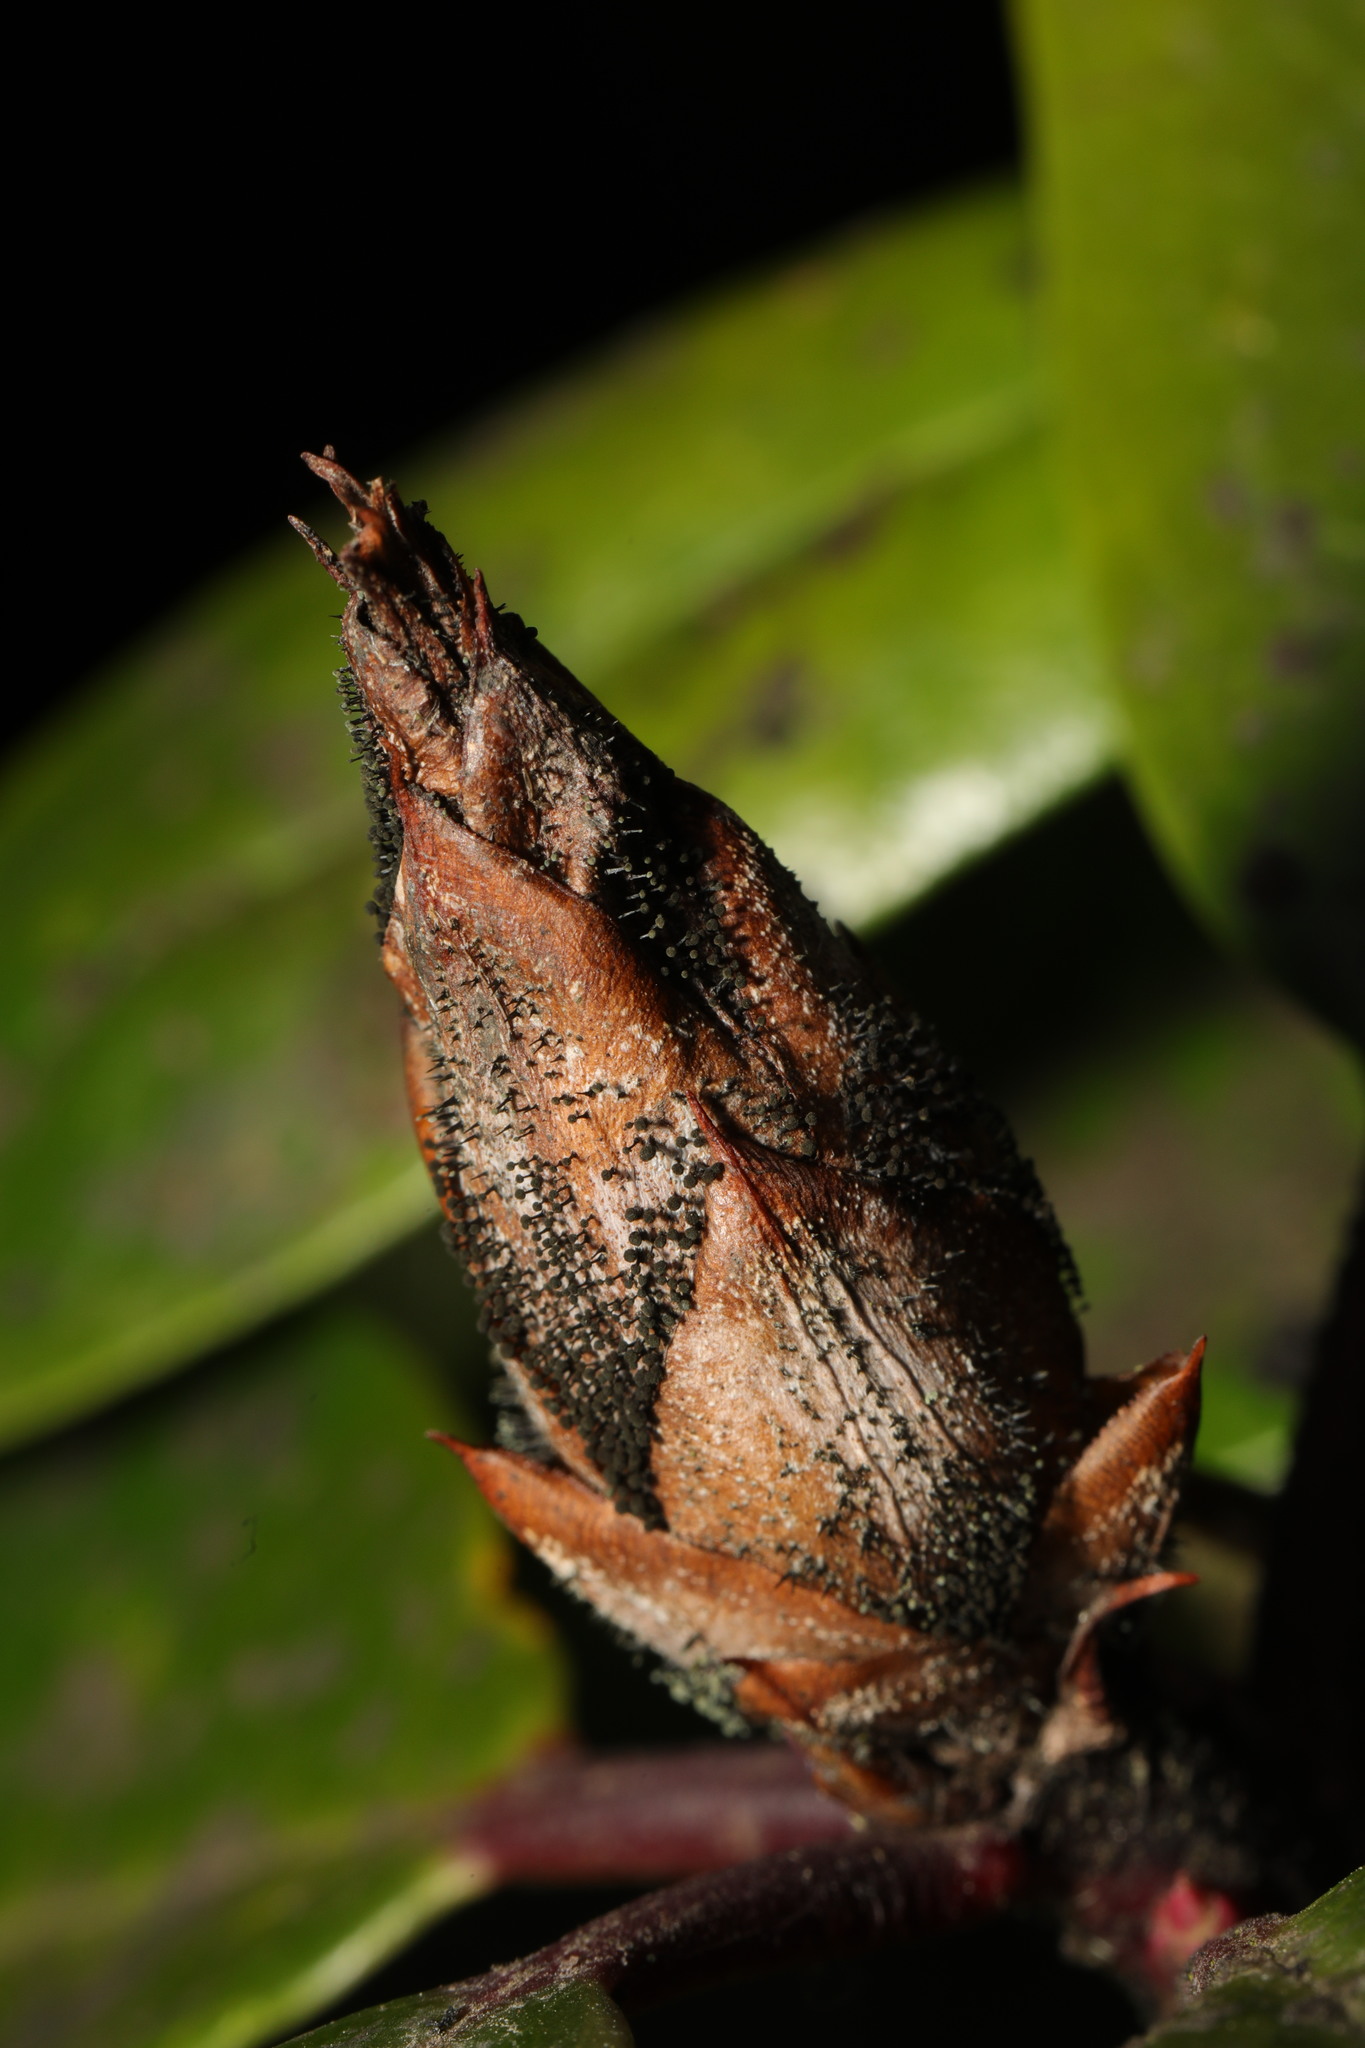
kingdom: Fungi
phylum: Ascomycota
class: Dothideomycetes
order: Pleosporales
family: Melanommataceae
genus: Seifertia
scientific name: Seifertia azaleae
